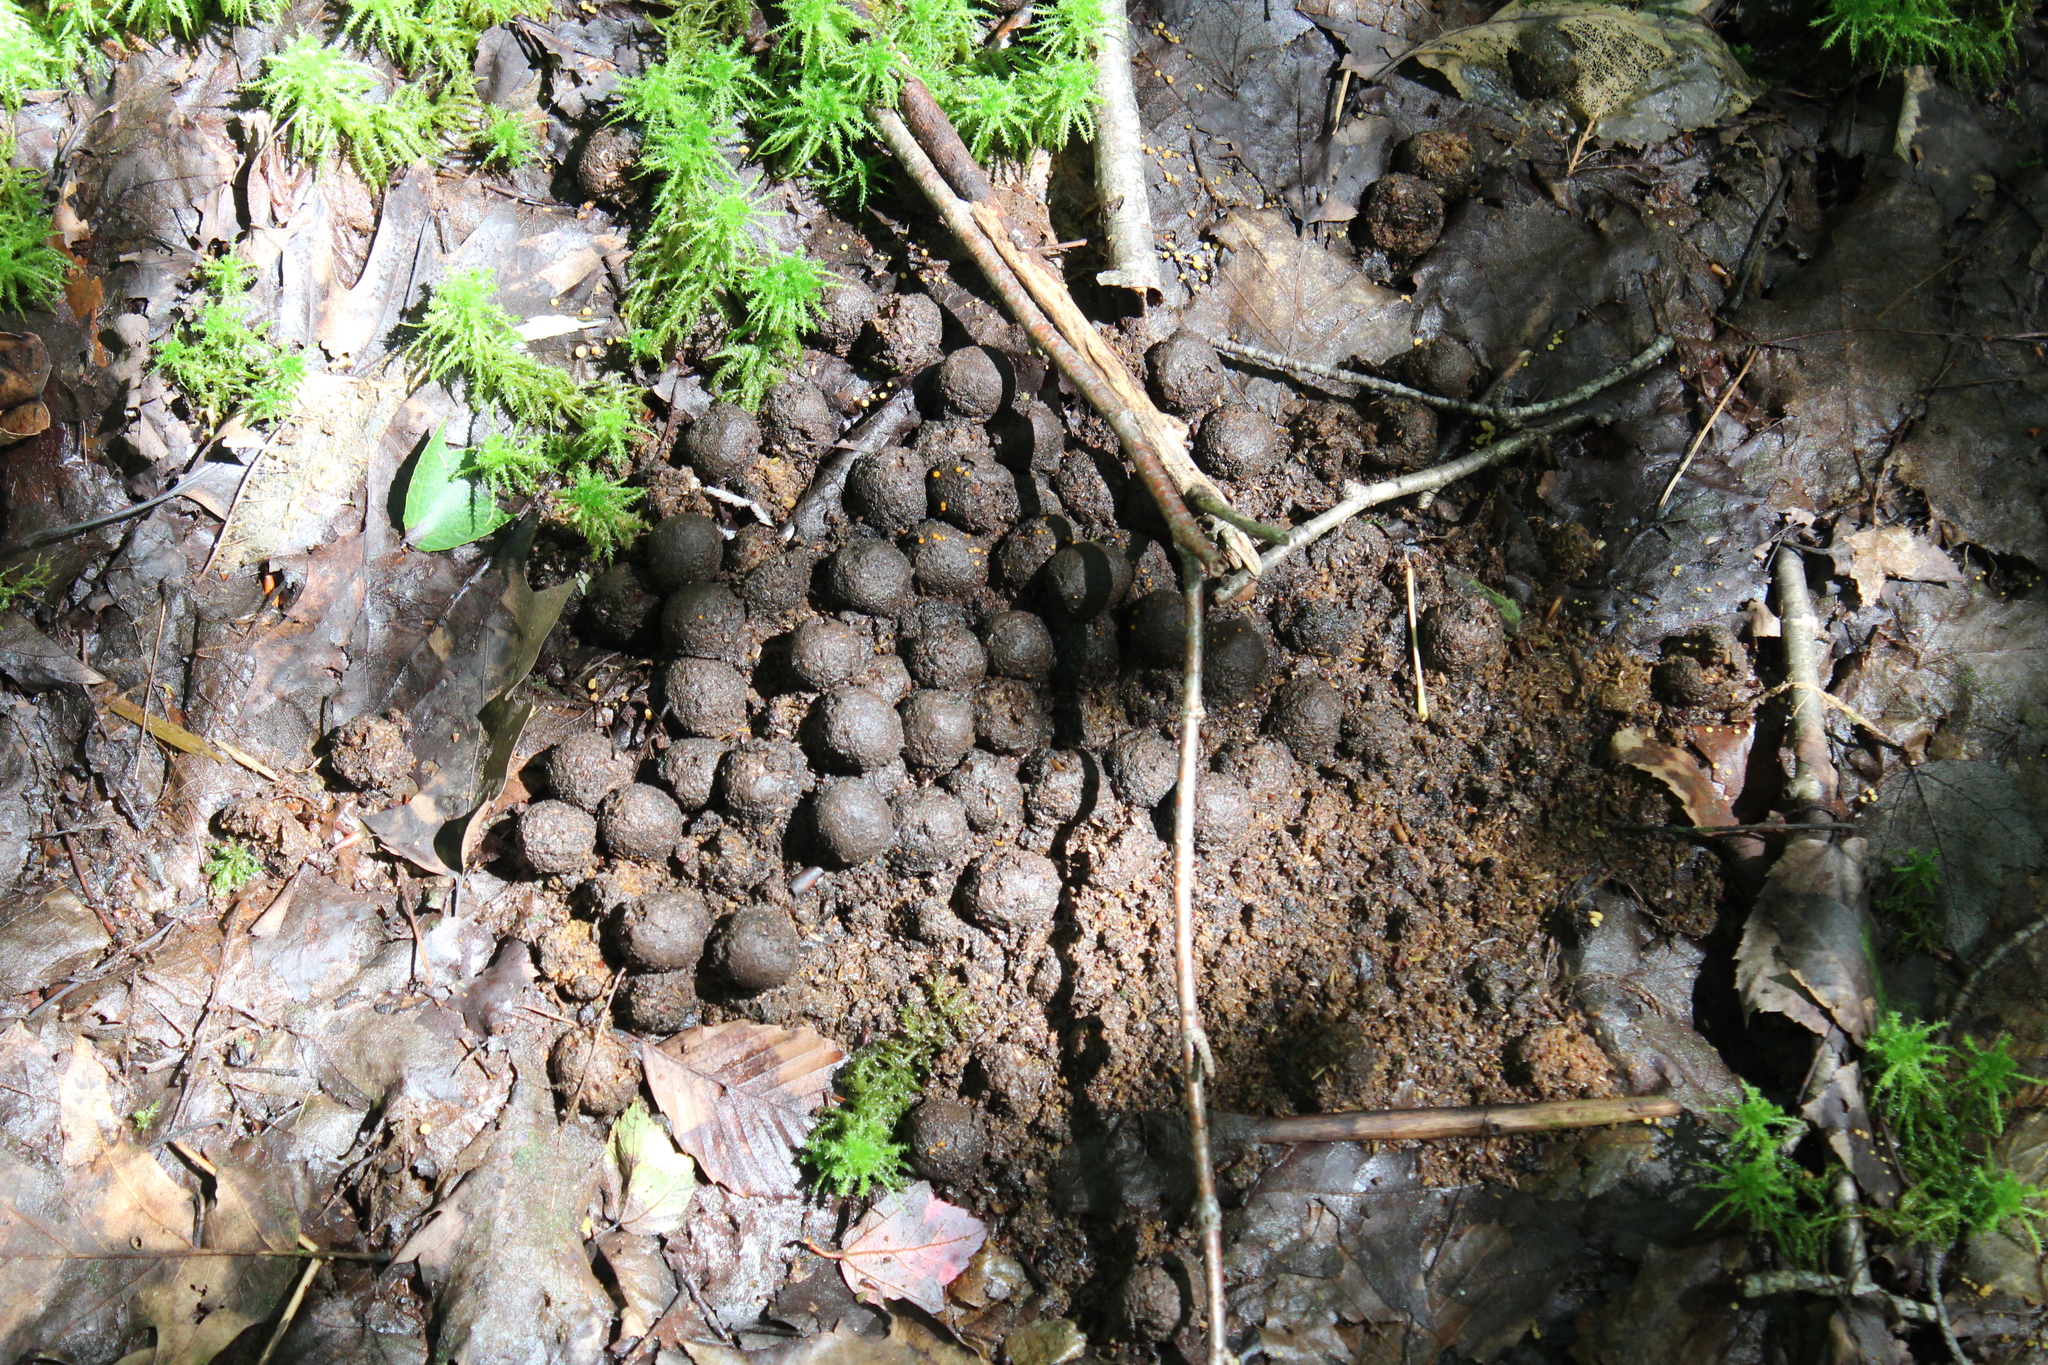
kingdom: Animalia
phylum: Chordata
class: Mammalia
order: Artiodactyla
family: Cervidae
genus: Alces
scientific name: Alces alces
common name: Moose
